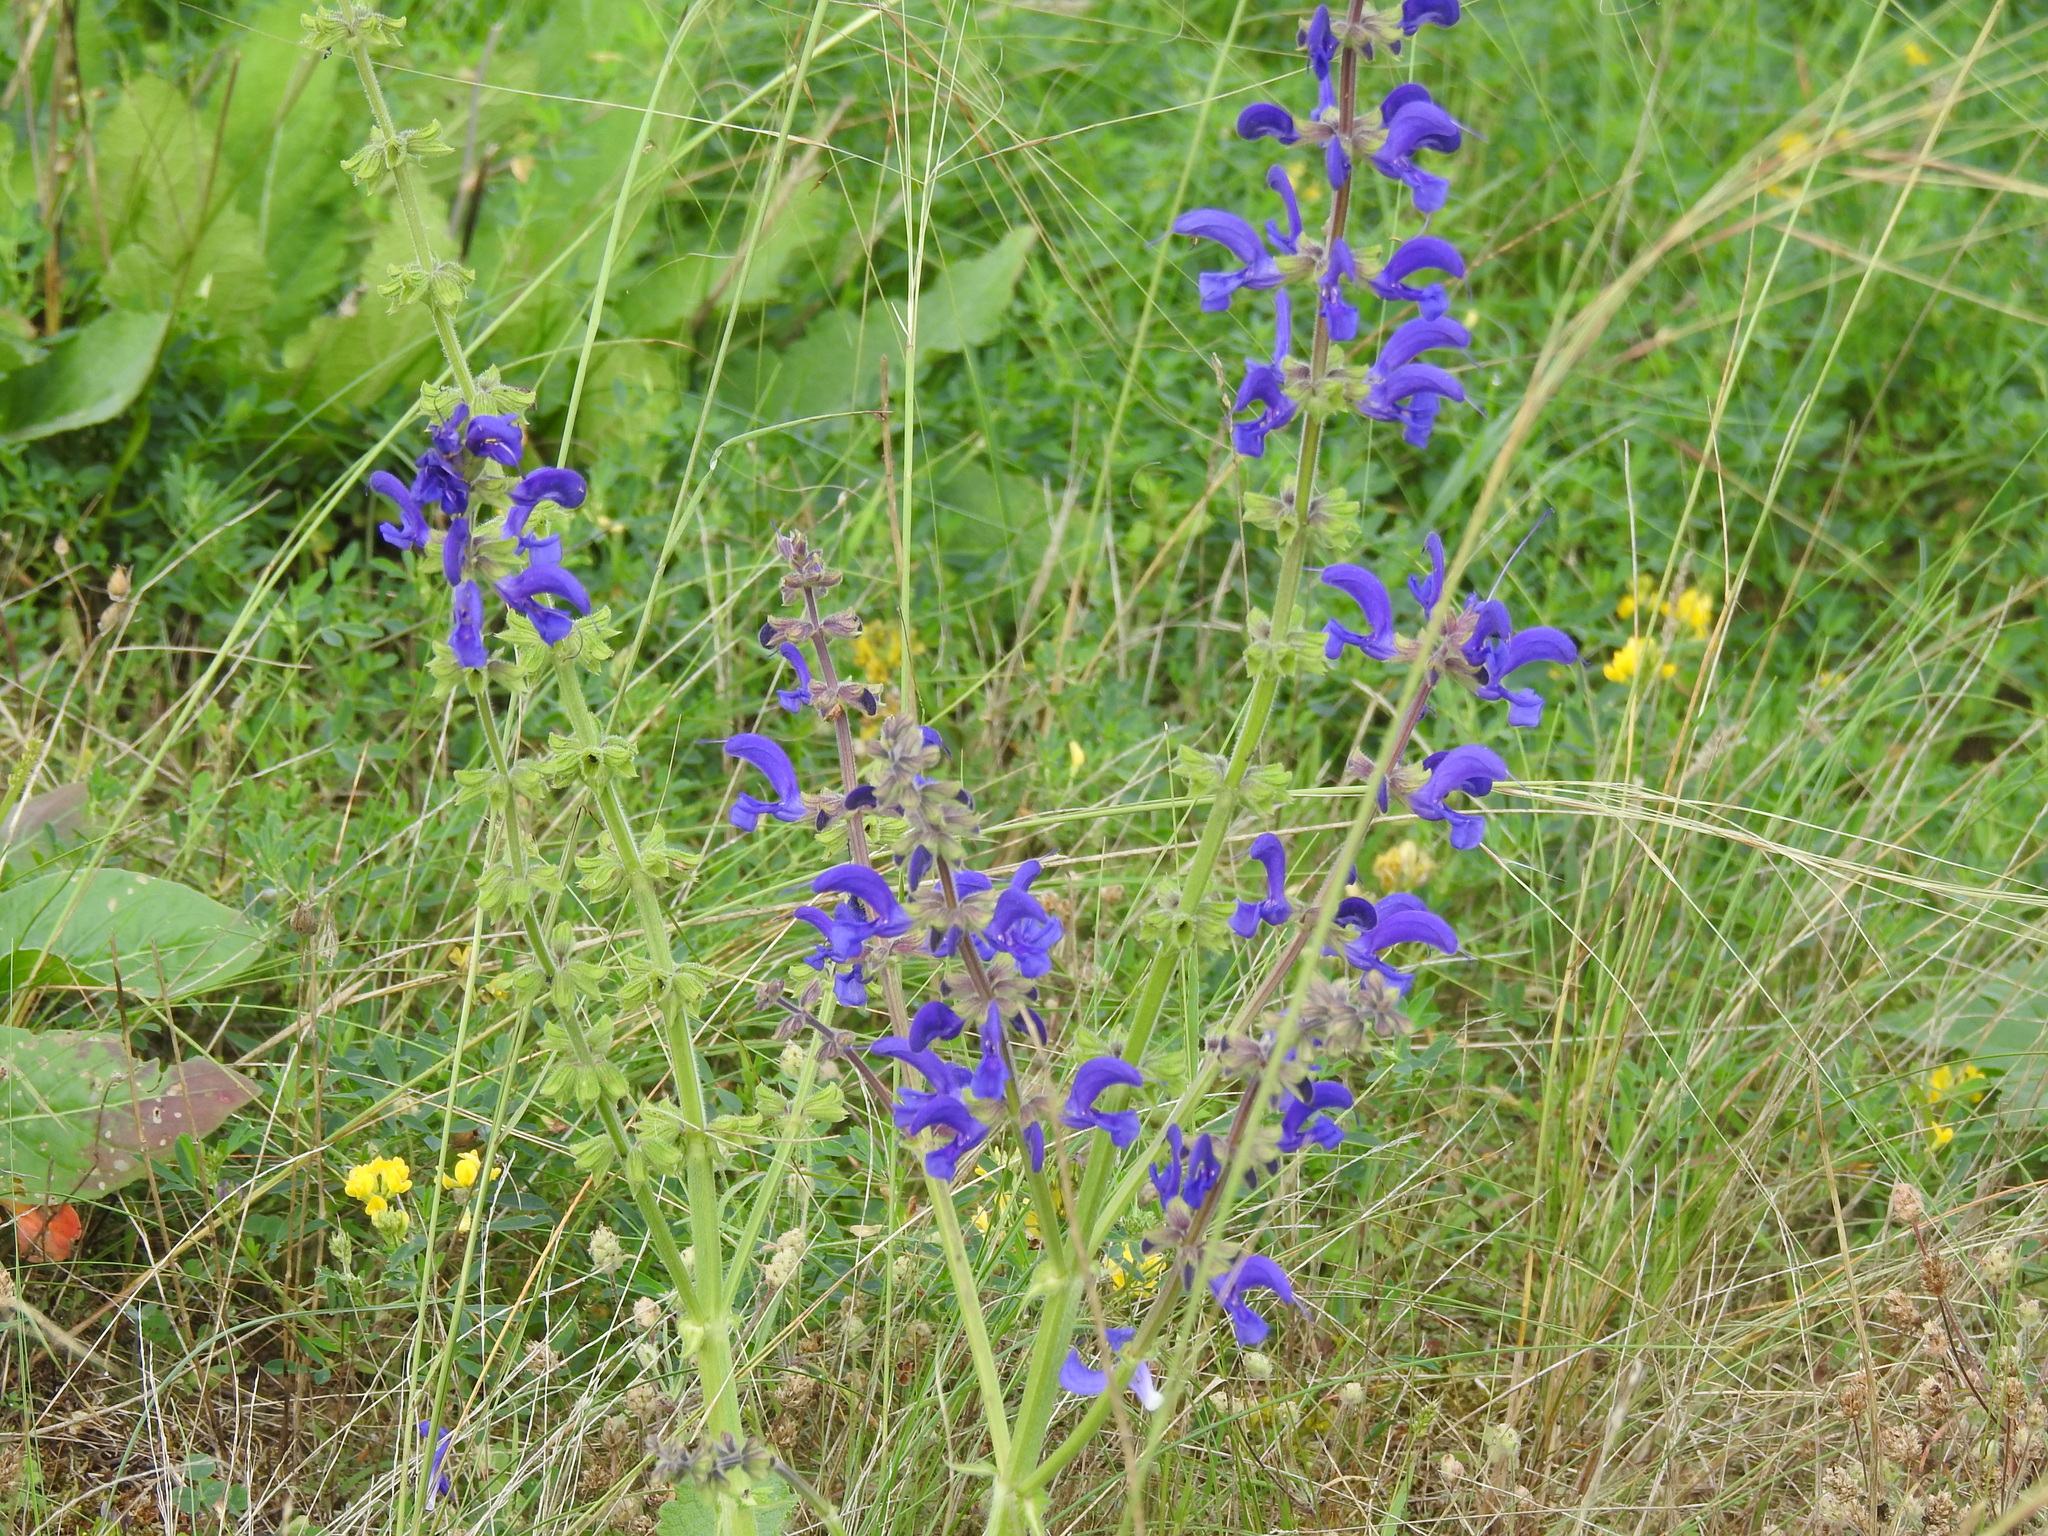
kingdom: Plantae
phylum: Tracheophyta
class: Magnoliopsida
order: Lamiales
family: Lamiaceae
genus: Salvia
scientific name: Salvia pratensis
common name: Meadow sage
